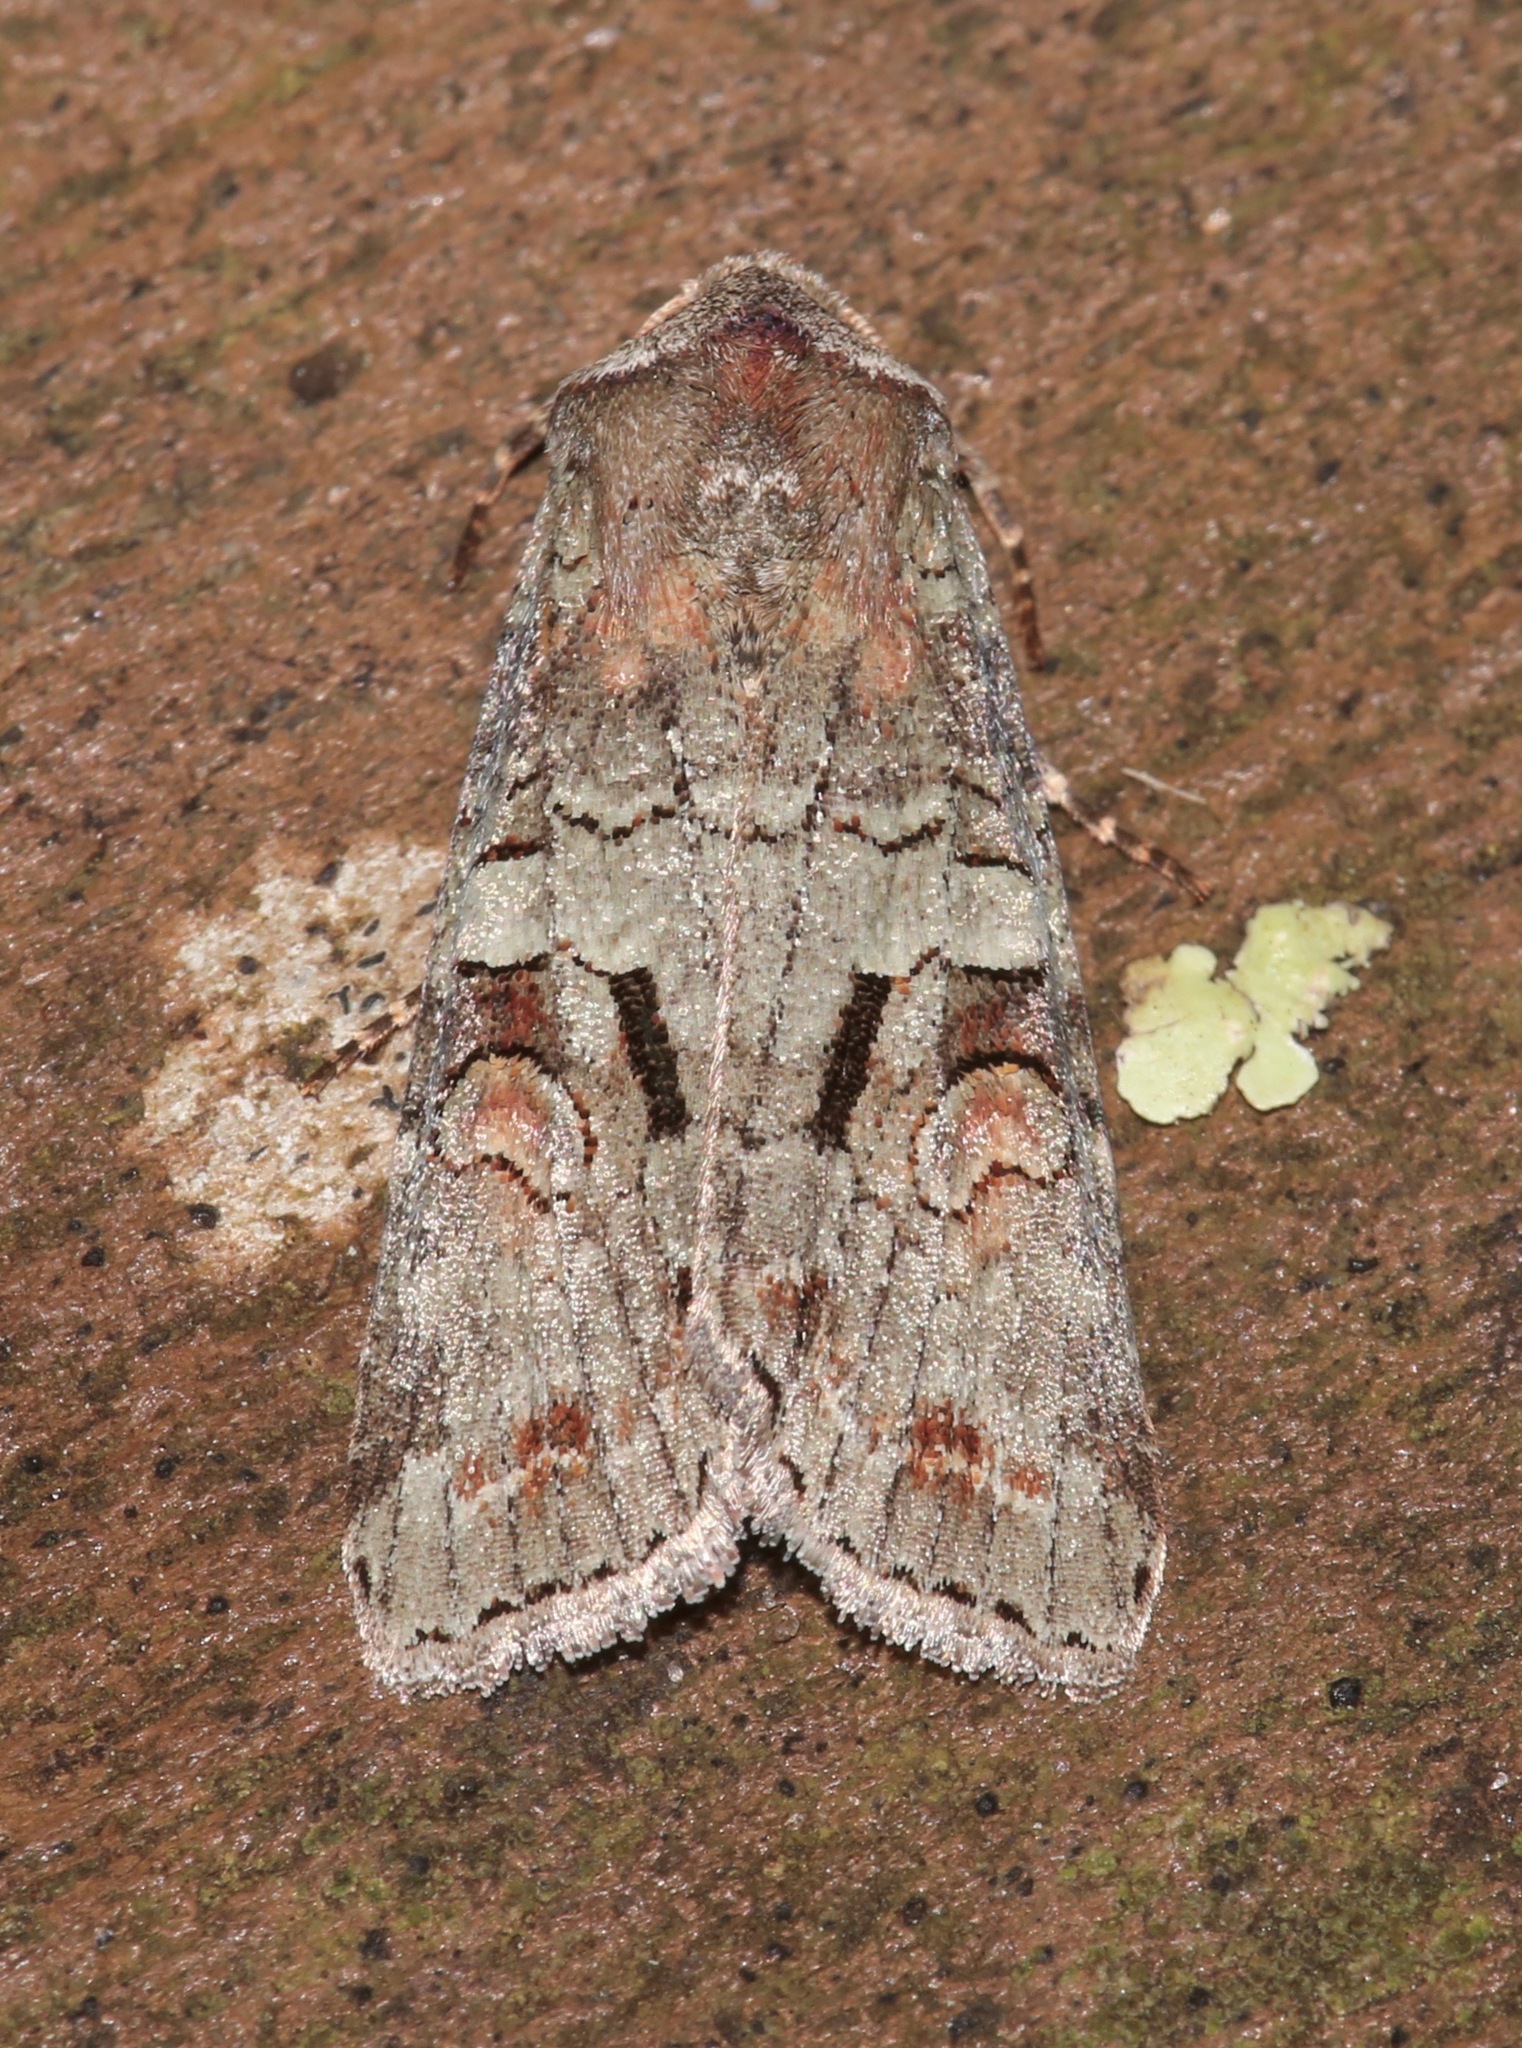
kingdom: Animalia
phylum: Arthropoda
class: Insecta
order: Lepidoptera
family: Noctuidae
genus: Egira
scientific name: Egira alternans
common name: Alternate woodling
